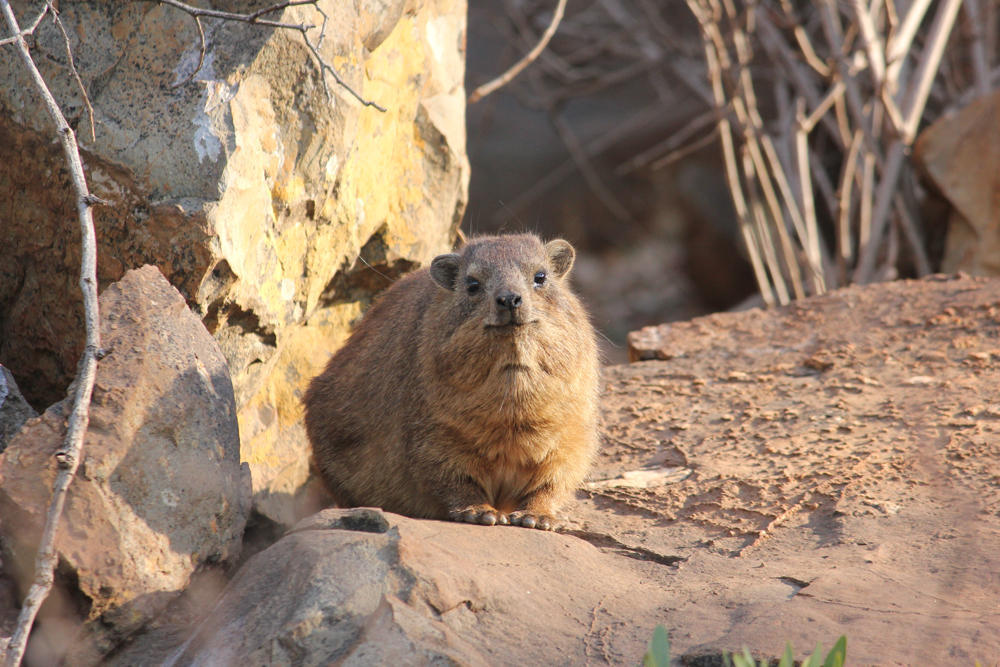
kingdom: Animalia
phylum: Chordata
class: Mammalia
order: Hyracoidea
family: Procaviidae
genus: Procavia
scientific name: Procavia capensis
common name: Rock hyrax
